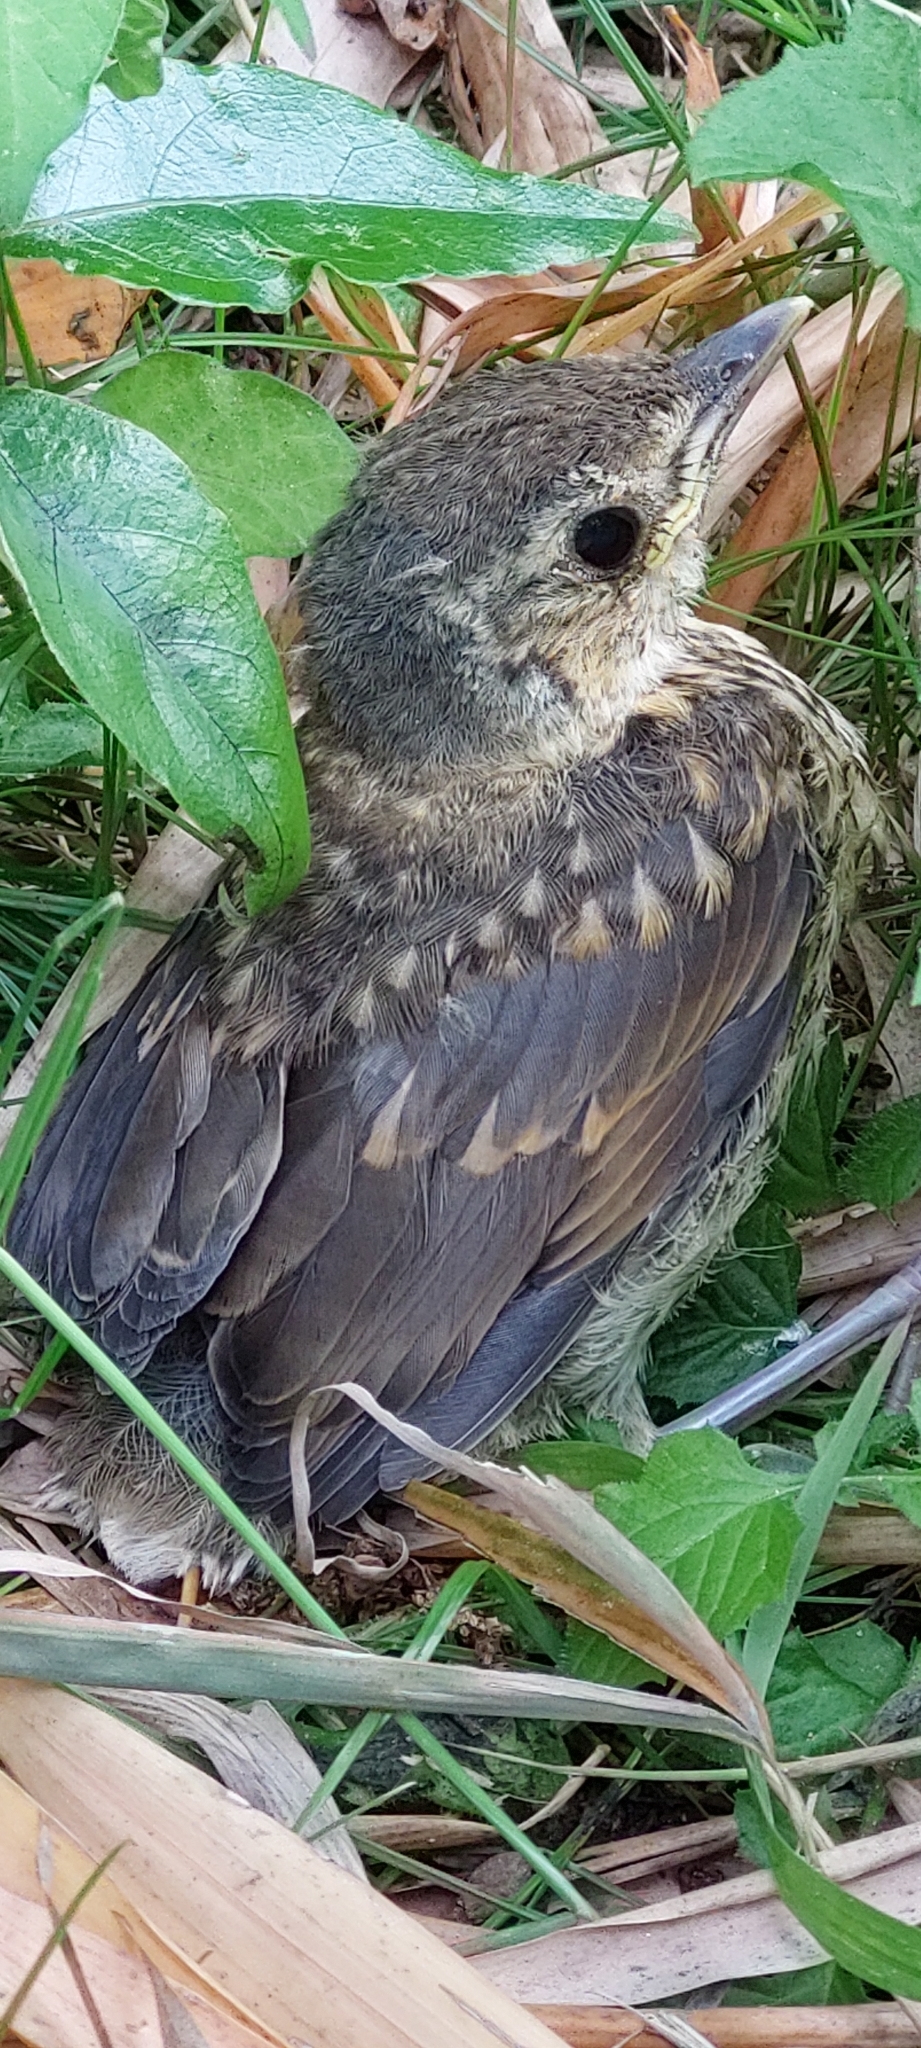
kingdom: Animalia
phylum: Chordata
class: Aves
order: Passeriformes
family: Turdidae
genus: Turdus
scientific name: Turdus merula
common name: Common blackbird
